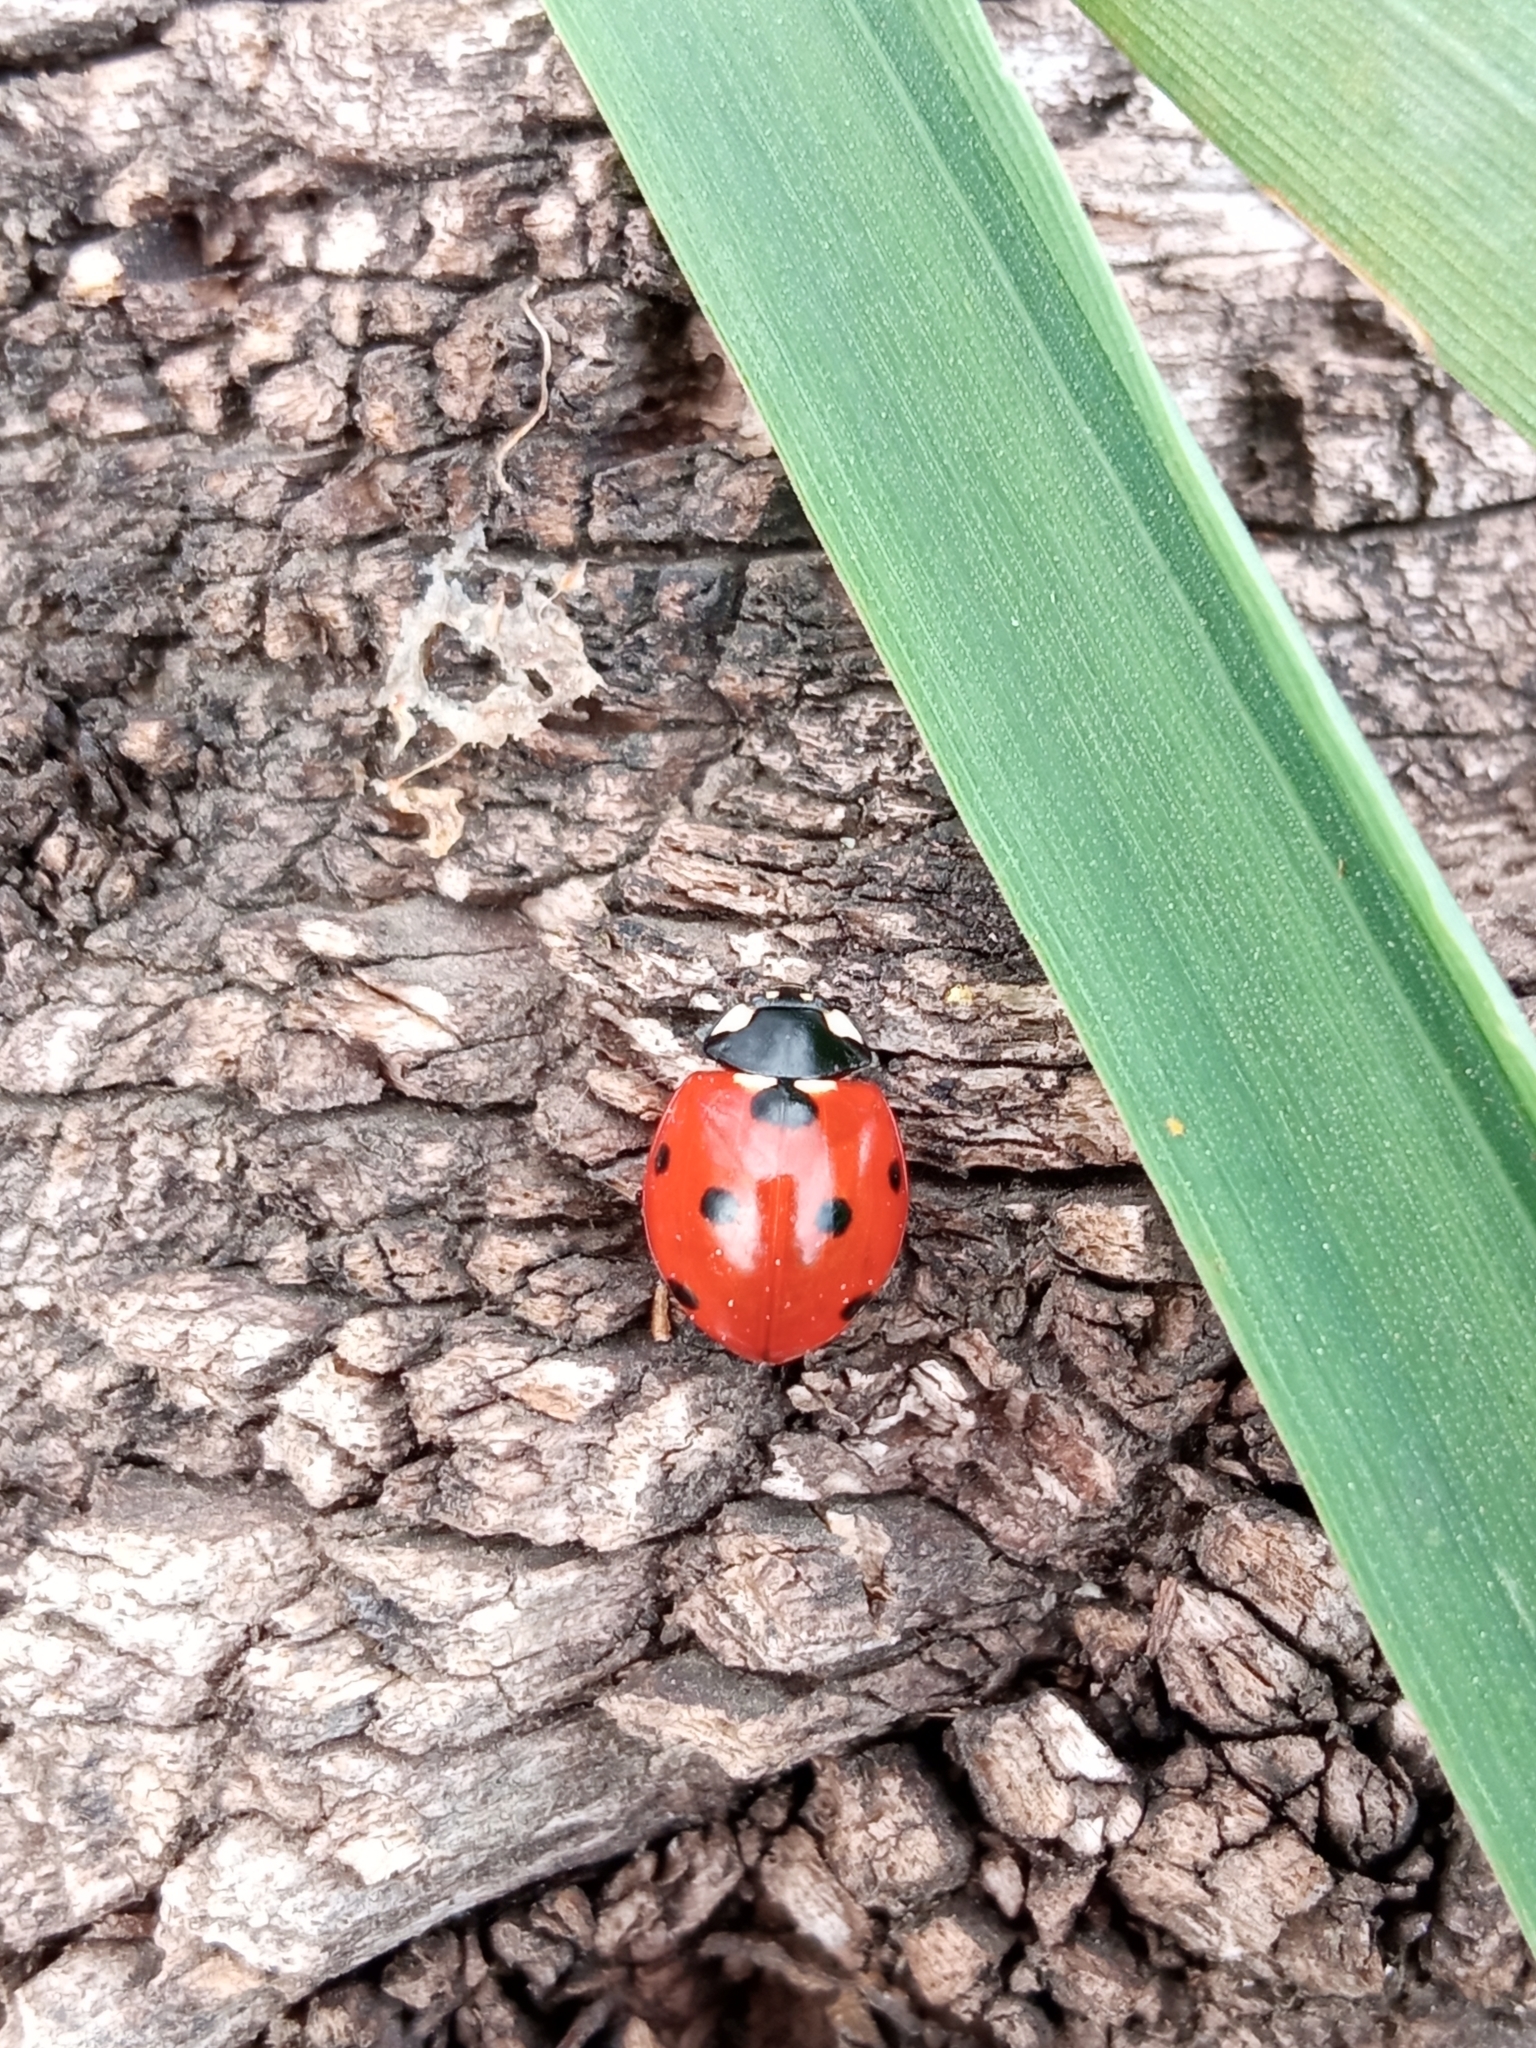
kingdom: Animalia
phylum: Arthropoda
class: Insecta
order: Coleoptera
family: Coccinellidae
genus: Coccinella
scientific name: Coccinella septempunctata
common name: Sevenspotted lady beetle
